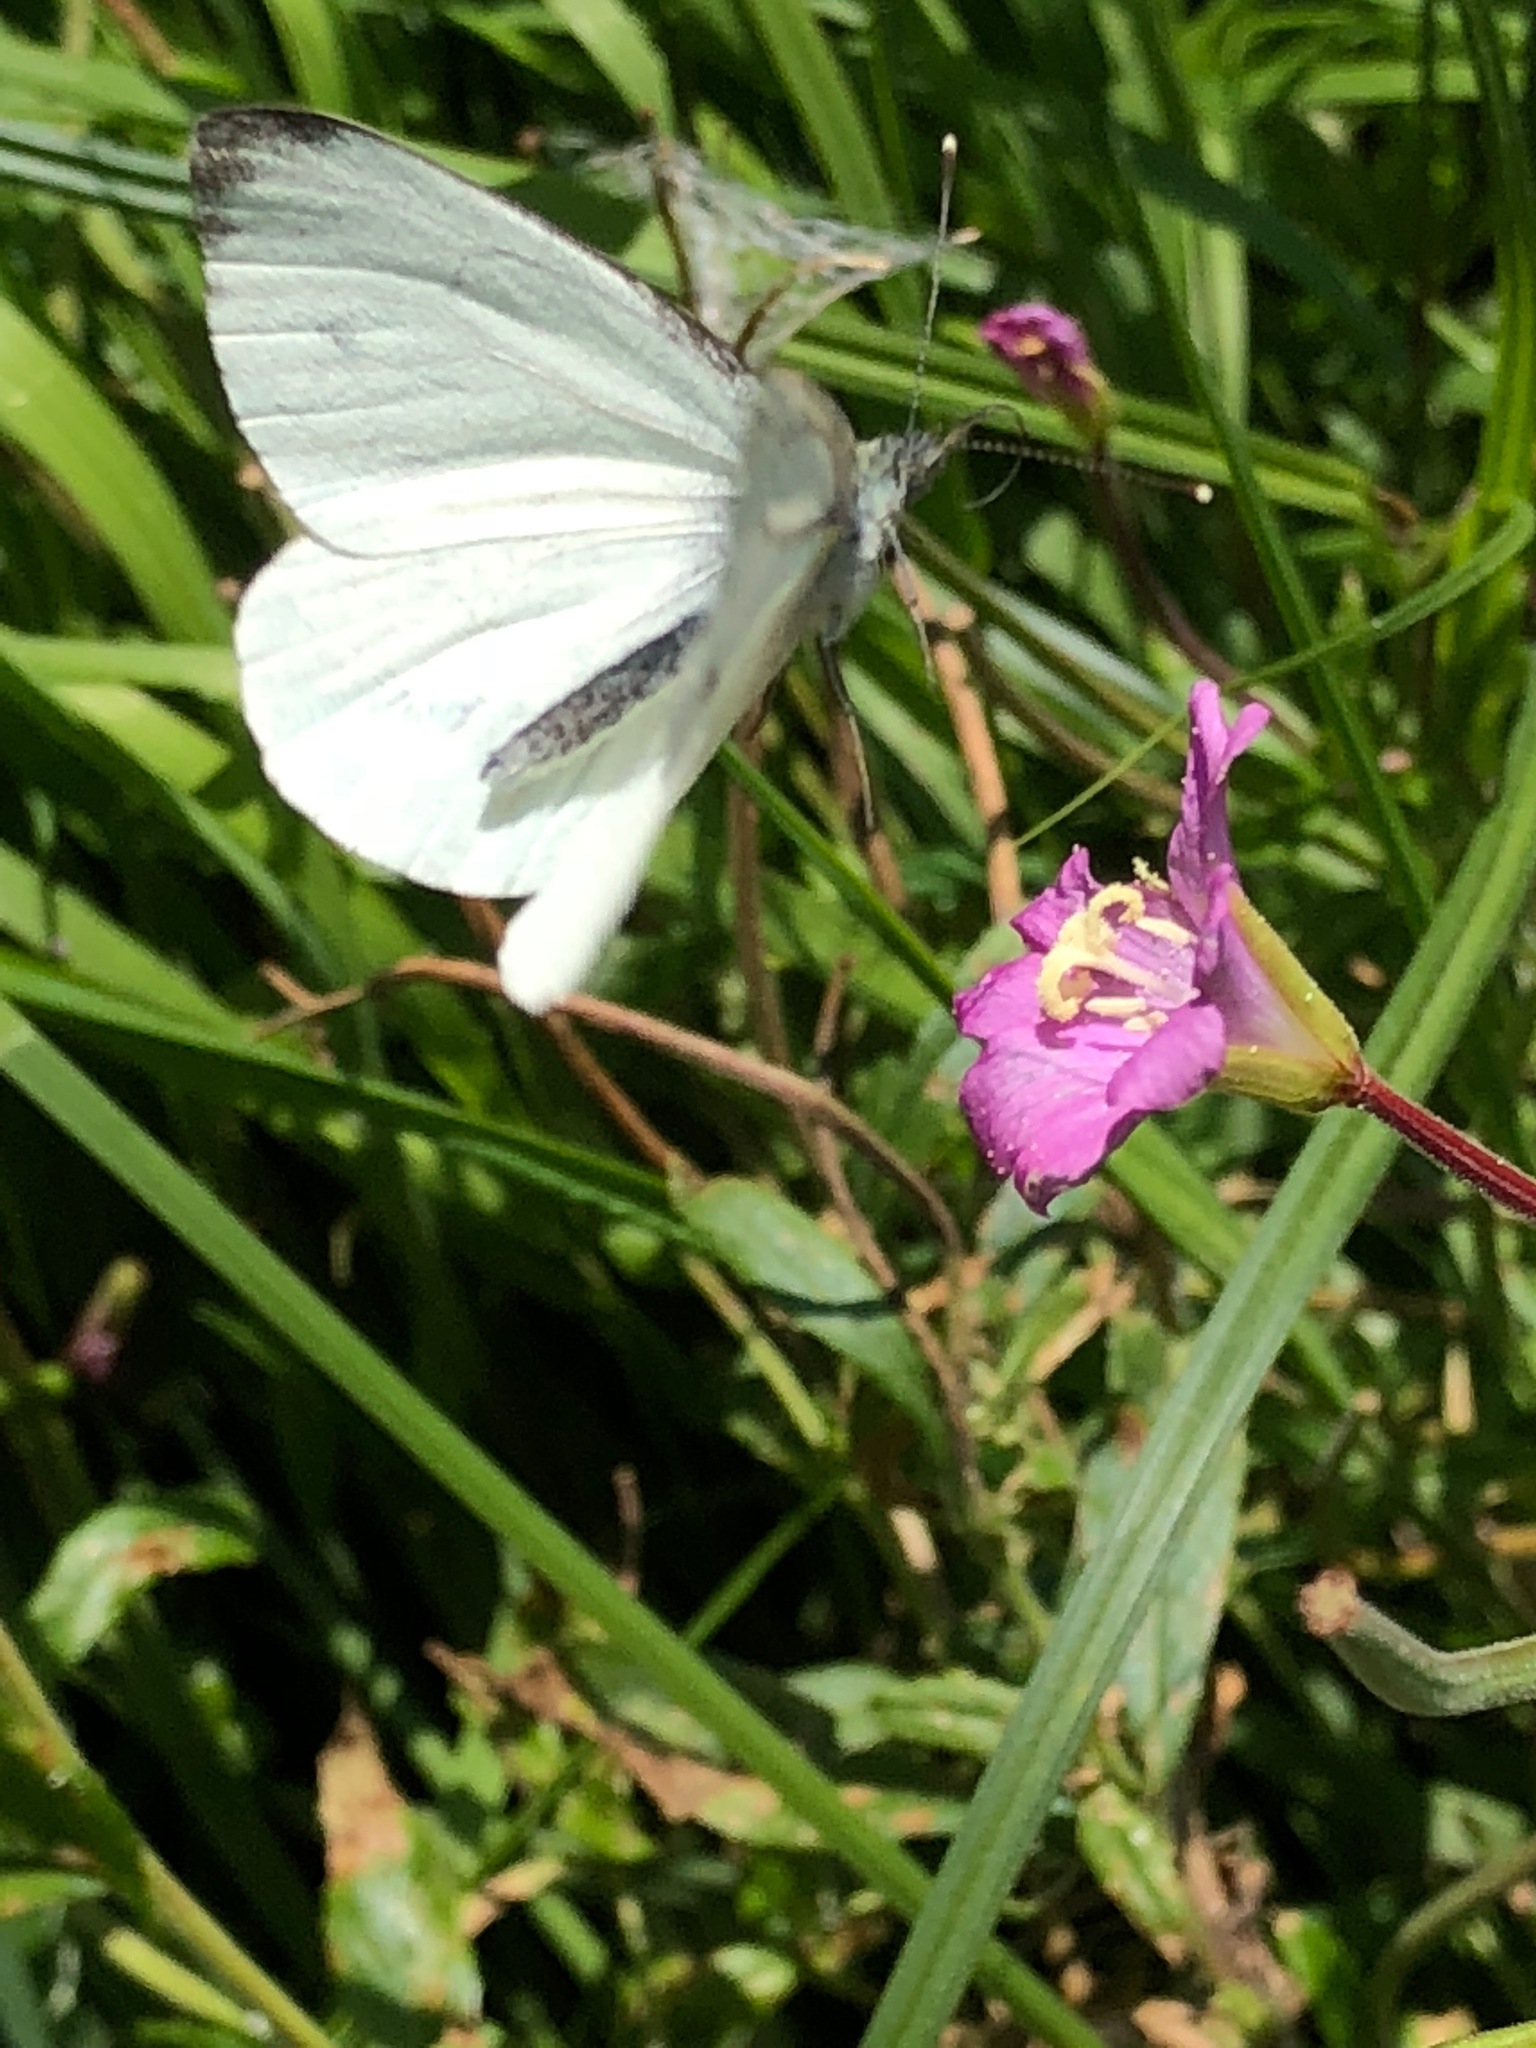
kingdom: Animalia
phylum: Arthropoda
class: Insecta
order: Lepidoptera
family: Pieridae
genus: Pieris
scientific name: Pieris napi
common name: Green-veined white
